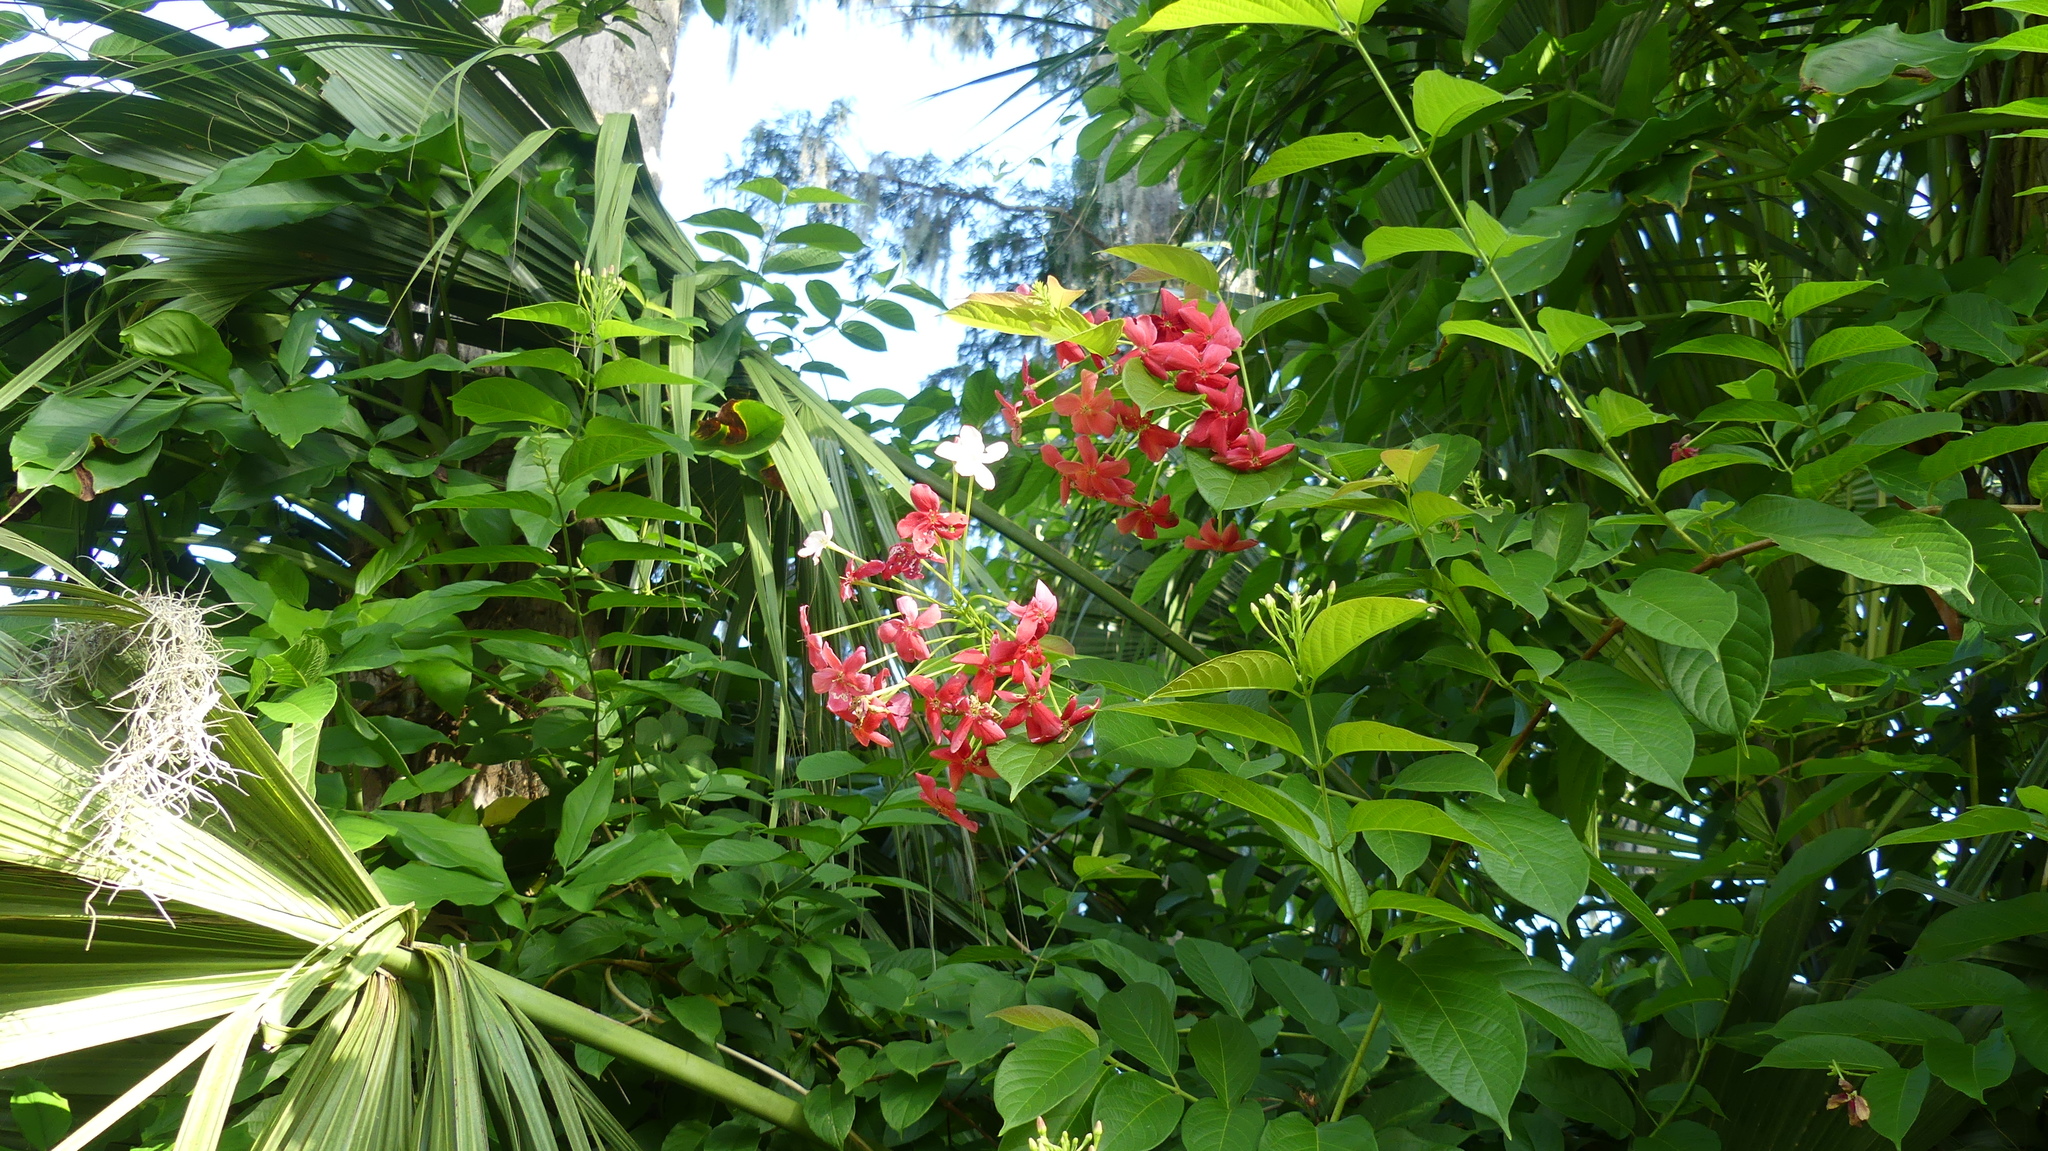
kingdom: Plantae
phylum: Tracheophyta
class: Magnoliopsida
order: Myrtales
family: Combretaceae
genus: Combretum
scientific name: Combretum indicum
